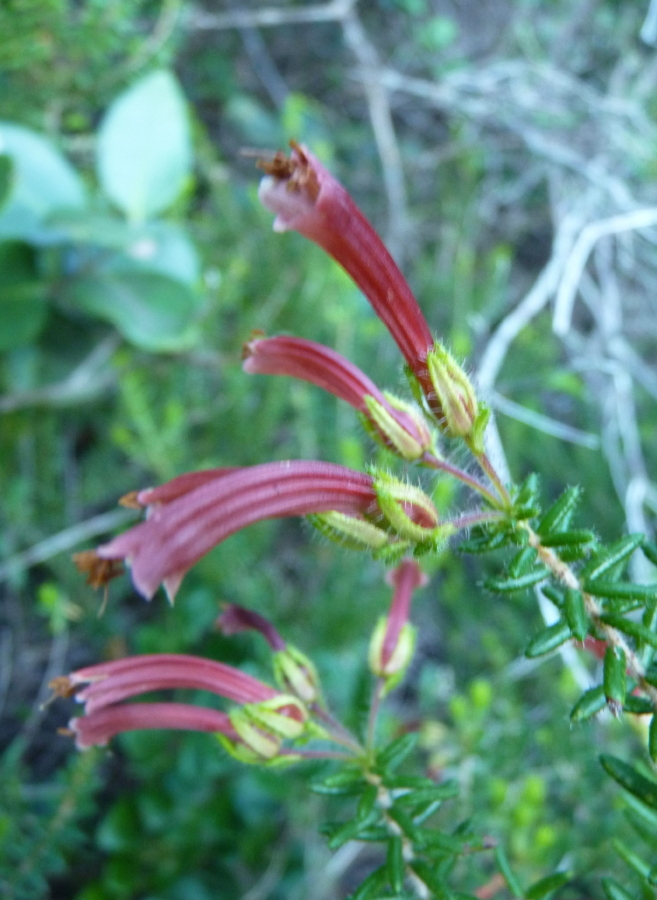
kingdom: Plantae
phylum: Tracheophyta
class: Magnoliopsida
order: Ericales
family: Ericaceae
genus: Erica
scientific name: Erica glandulosa
